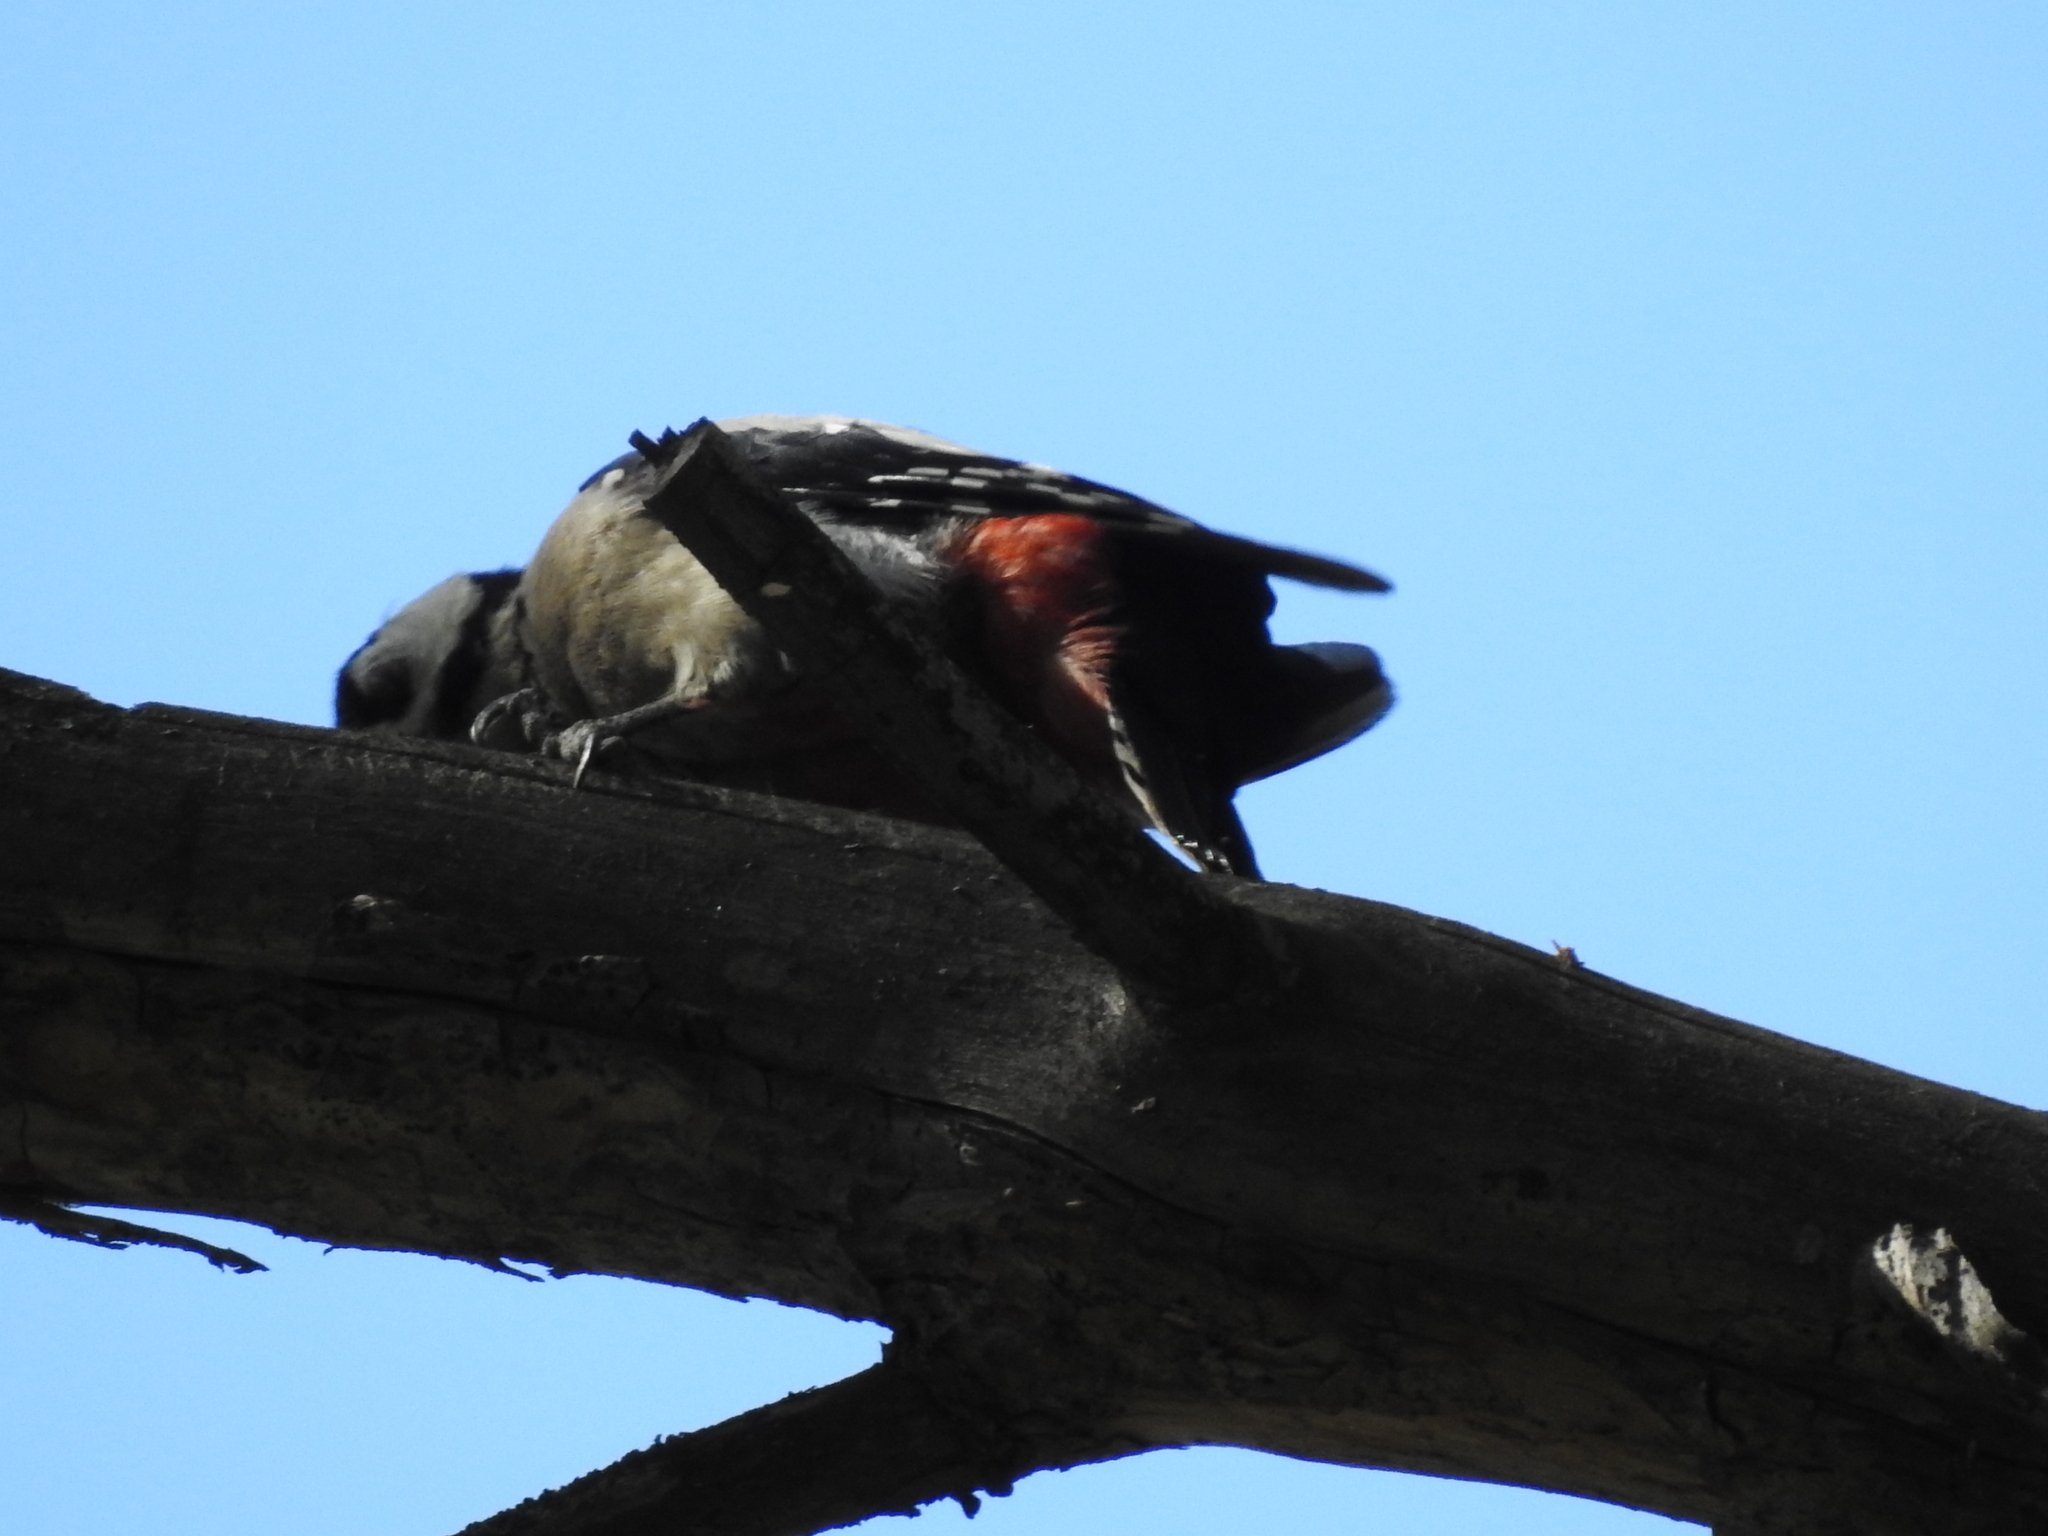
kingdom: Animalia
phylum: Chordata
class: Aves
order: Piciformes
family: Picidae
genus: Dendrocopos
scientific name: Dendrocopos major
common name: Great spotted woodpecker
